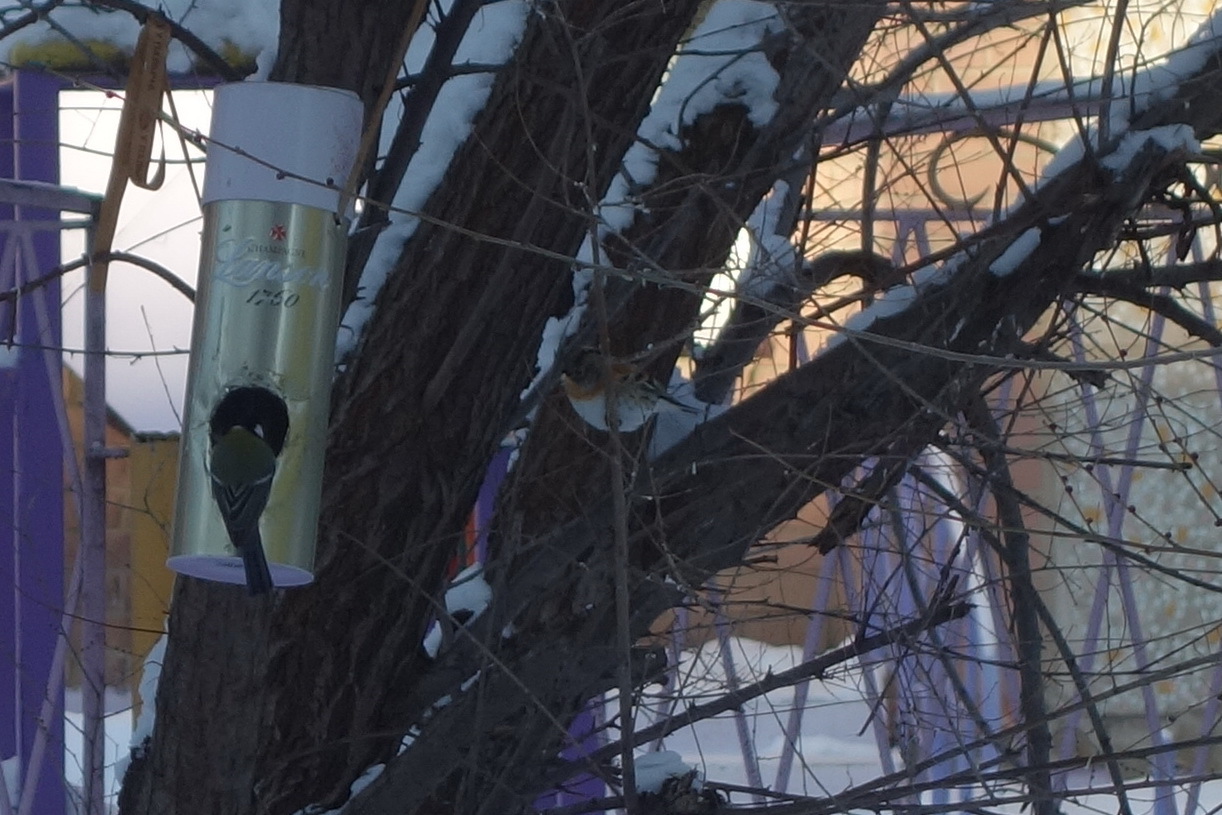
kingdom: Animalia
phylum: Chordata
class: Aves
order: Passeriformes
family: Fringillidae
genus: Fringilla
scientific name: Fringilla montifringilla
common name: Brambling
